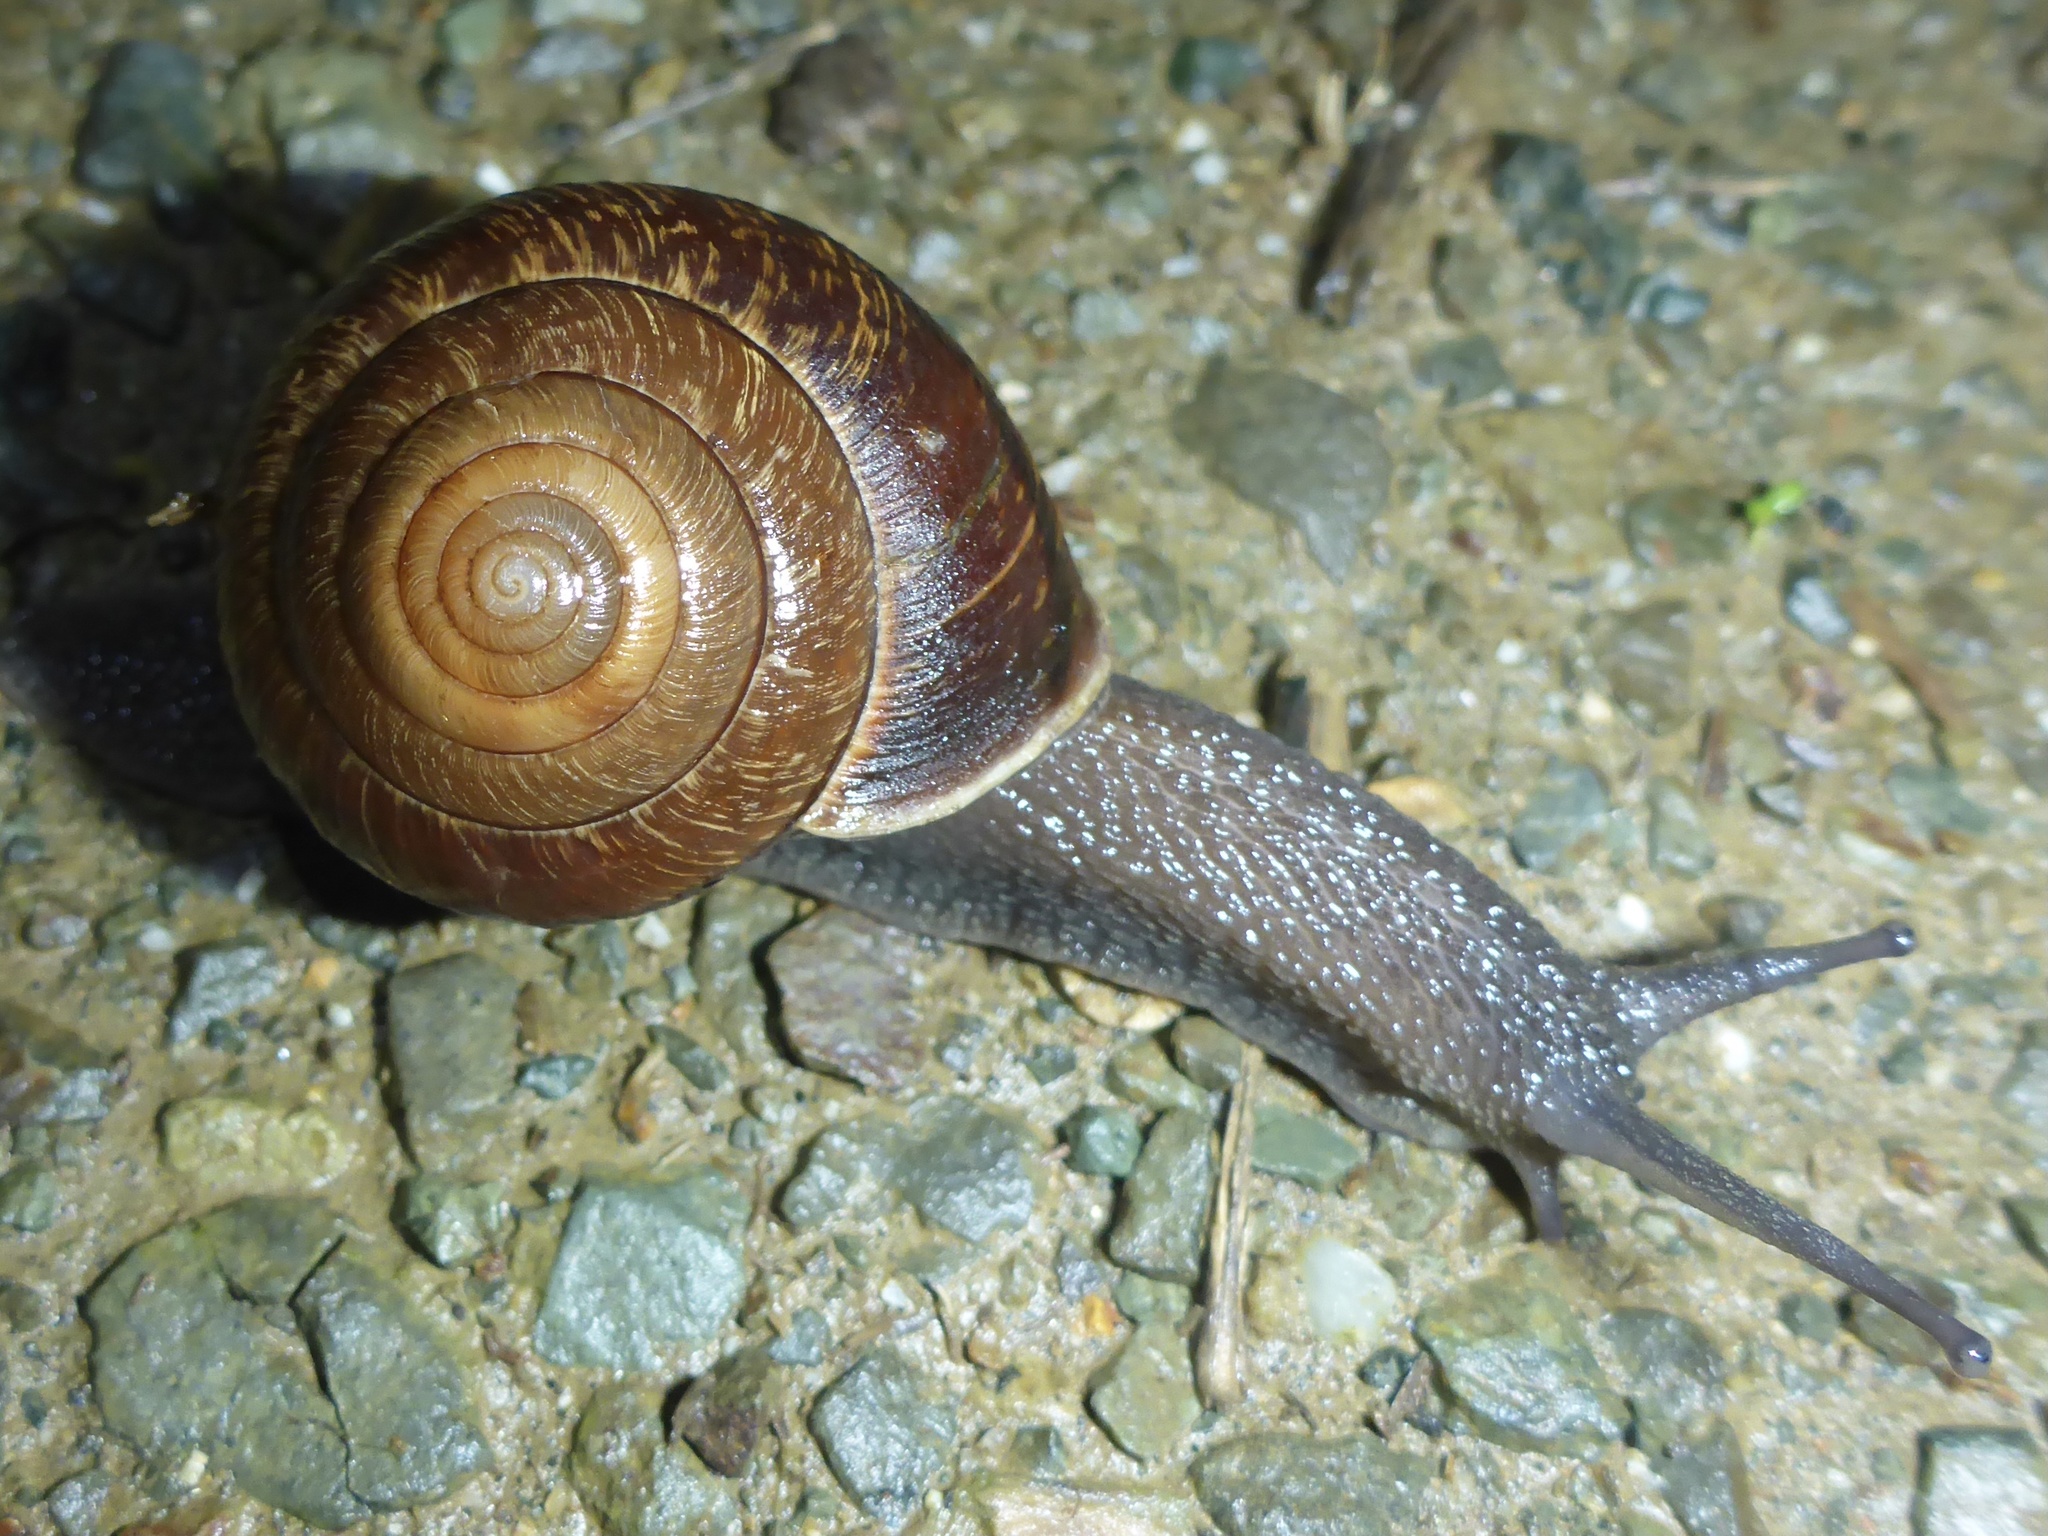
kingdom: Animalia
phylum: Mollusca
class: Gastropoda
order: Stylommatophora
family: Xanthonychidae
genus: Helminthoglypta
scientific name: Helminthoglypta arrosa
